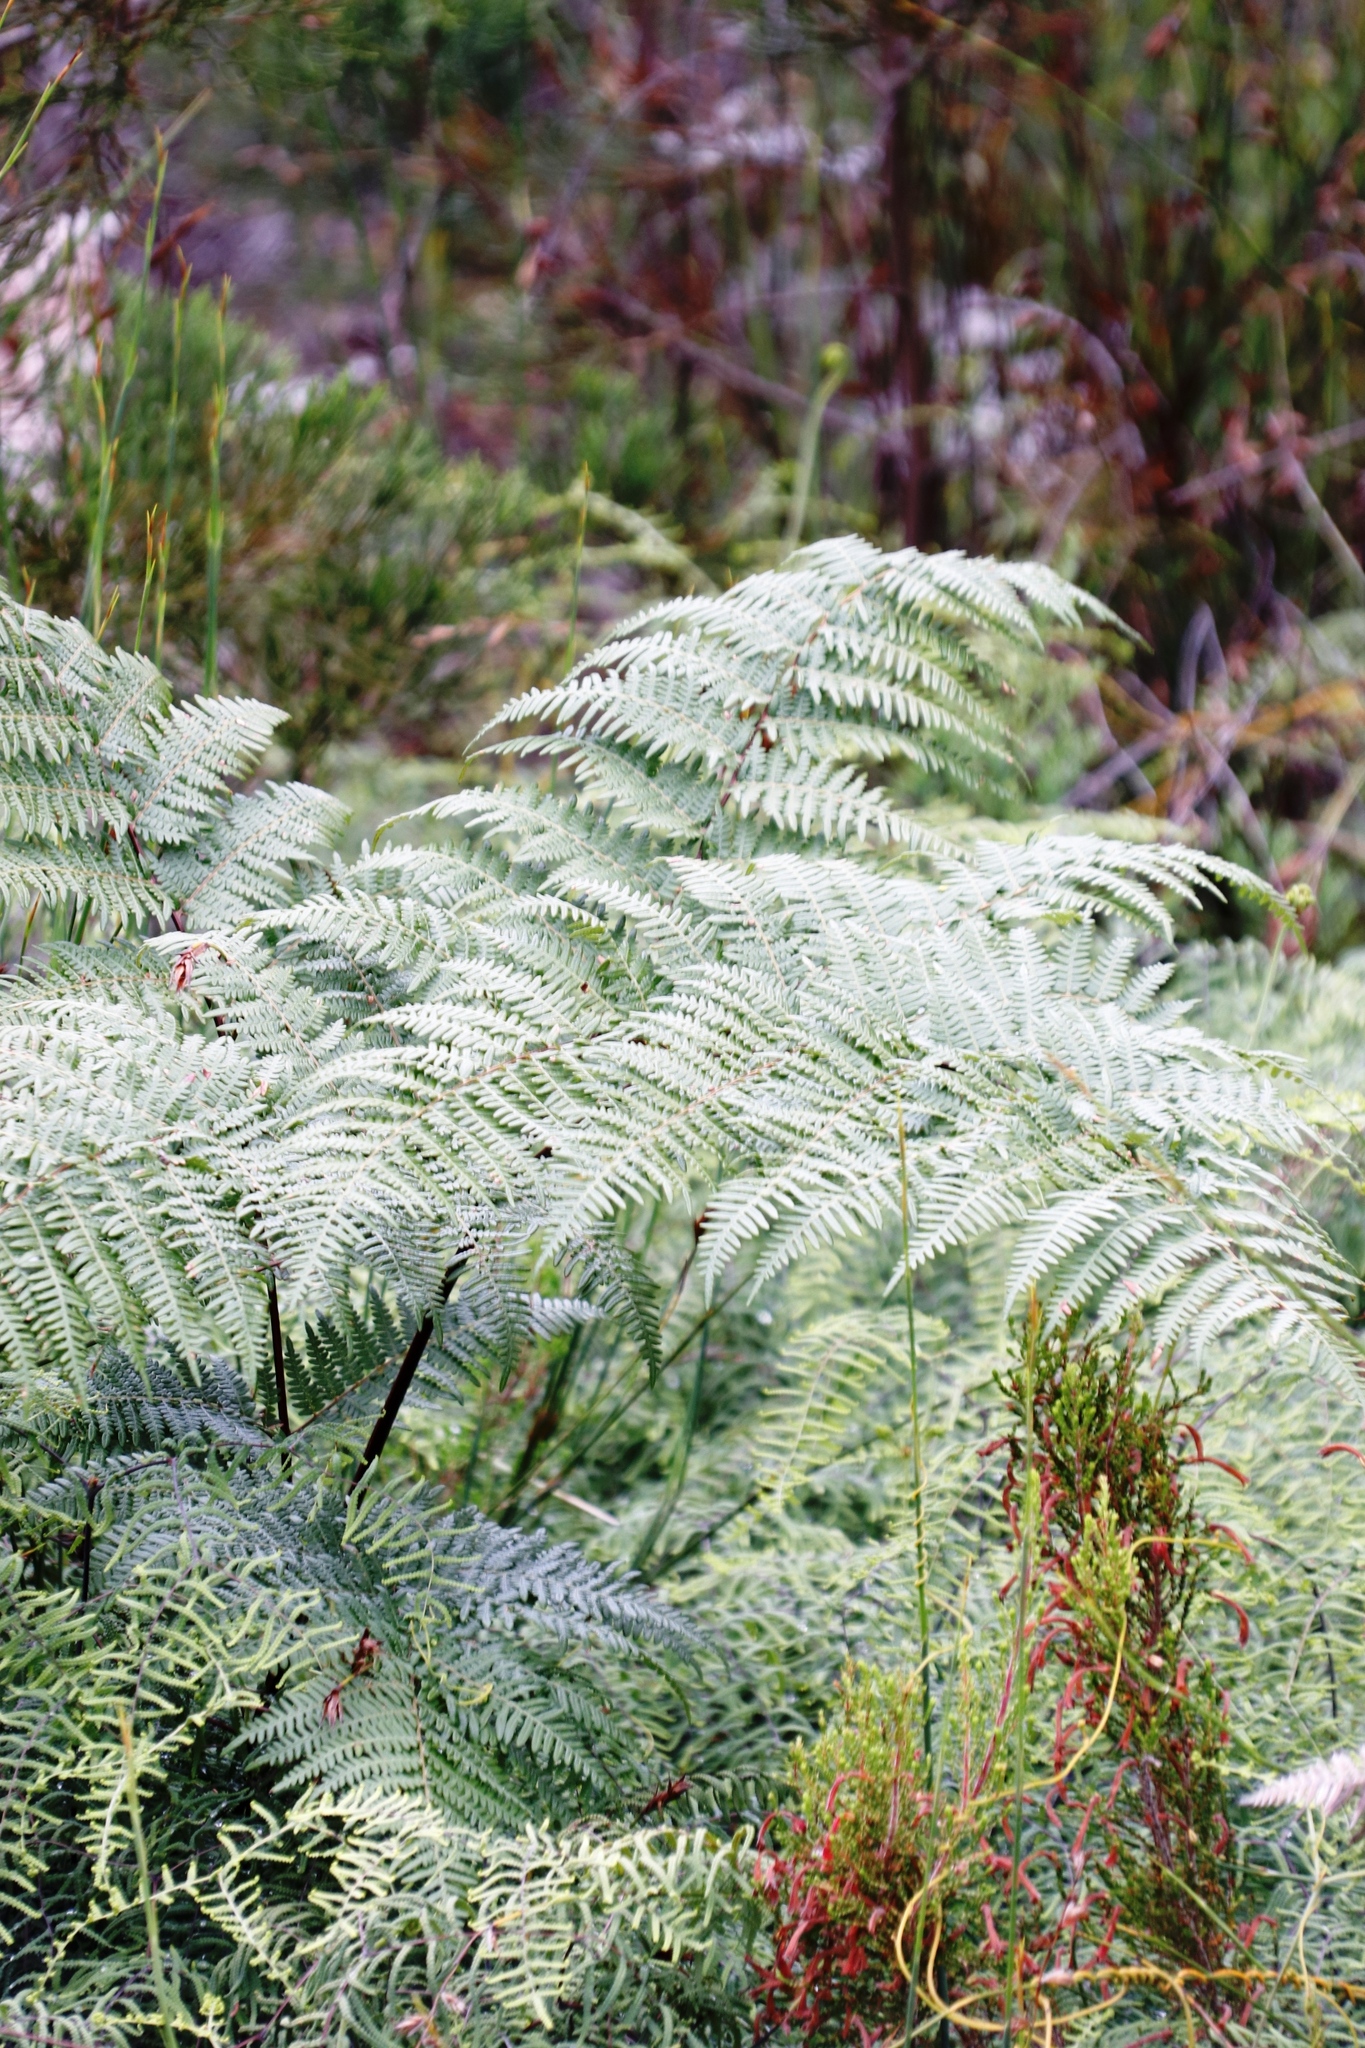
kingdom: Plantae
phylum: Tracheophyta
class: Polypodiopsida
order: Polypodiales
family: Dennstaedtiaceae
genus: Pteridium
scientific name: Pteridium aquilinum
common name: Bracken
